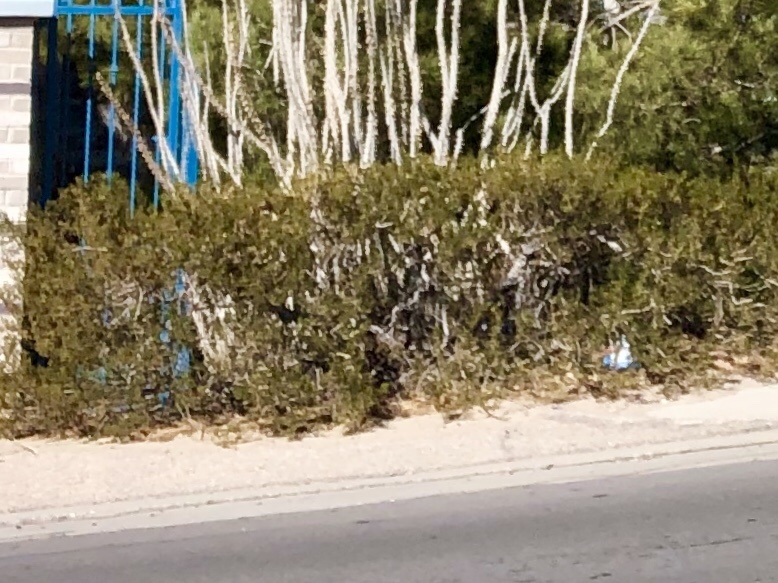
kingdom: Plantae
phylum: Tracheophyta
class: Magnoliopsida
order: Zygophyllales
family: Zygophyllaceae
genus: Larrea
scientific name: Larrea tridentata
